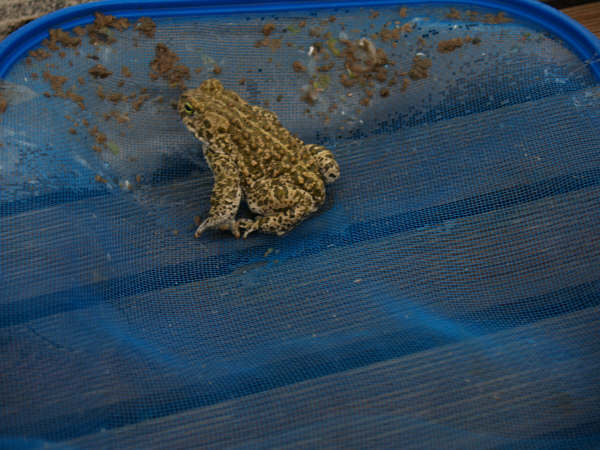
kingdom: Animalia
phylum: Chordata
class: Amphibia
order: Anura
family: Bufonidae
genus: Epidalea
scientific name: Epidalea calamita
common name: Natterjack toad
